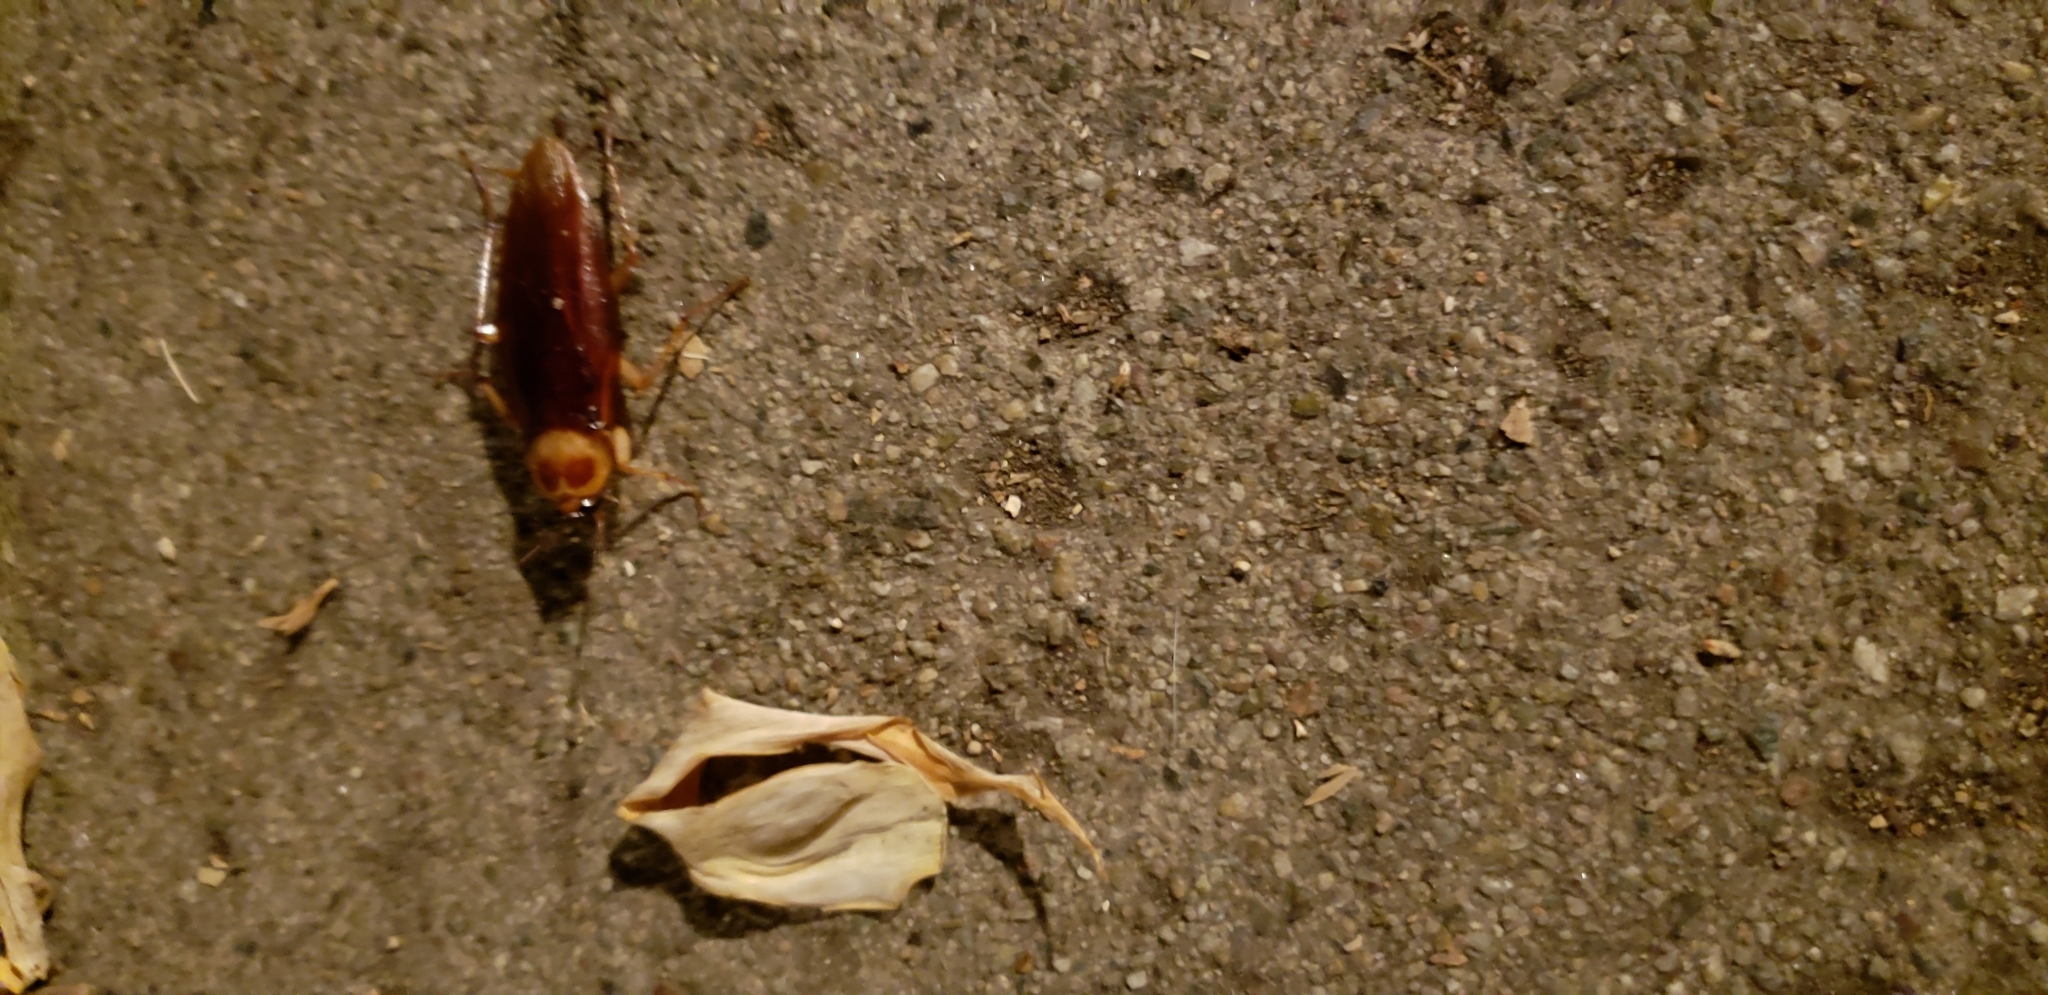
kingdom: Animalia
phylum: Arthropoda
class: Insecta
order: Blattodea
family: Blattidae
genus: Periplaneta
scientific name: Periplaneta americana
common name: American cockroach
